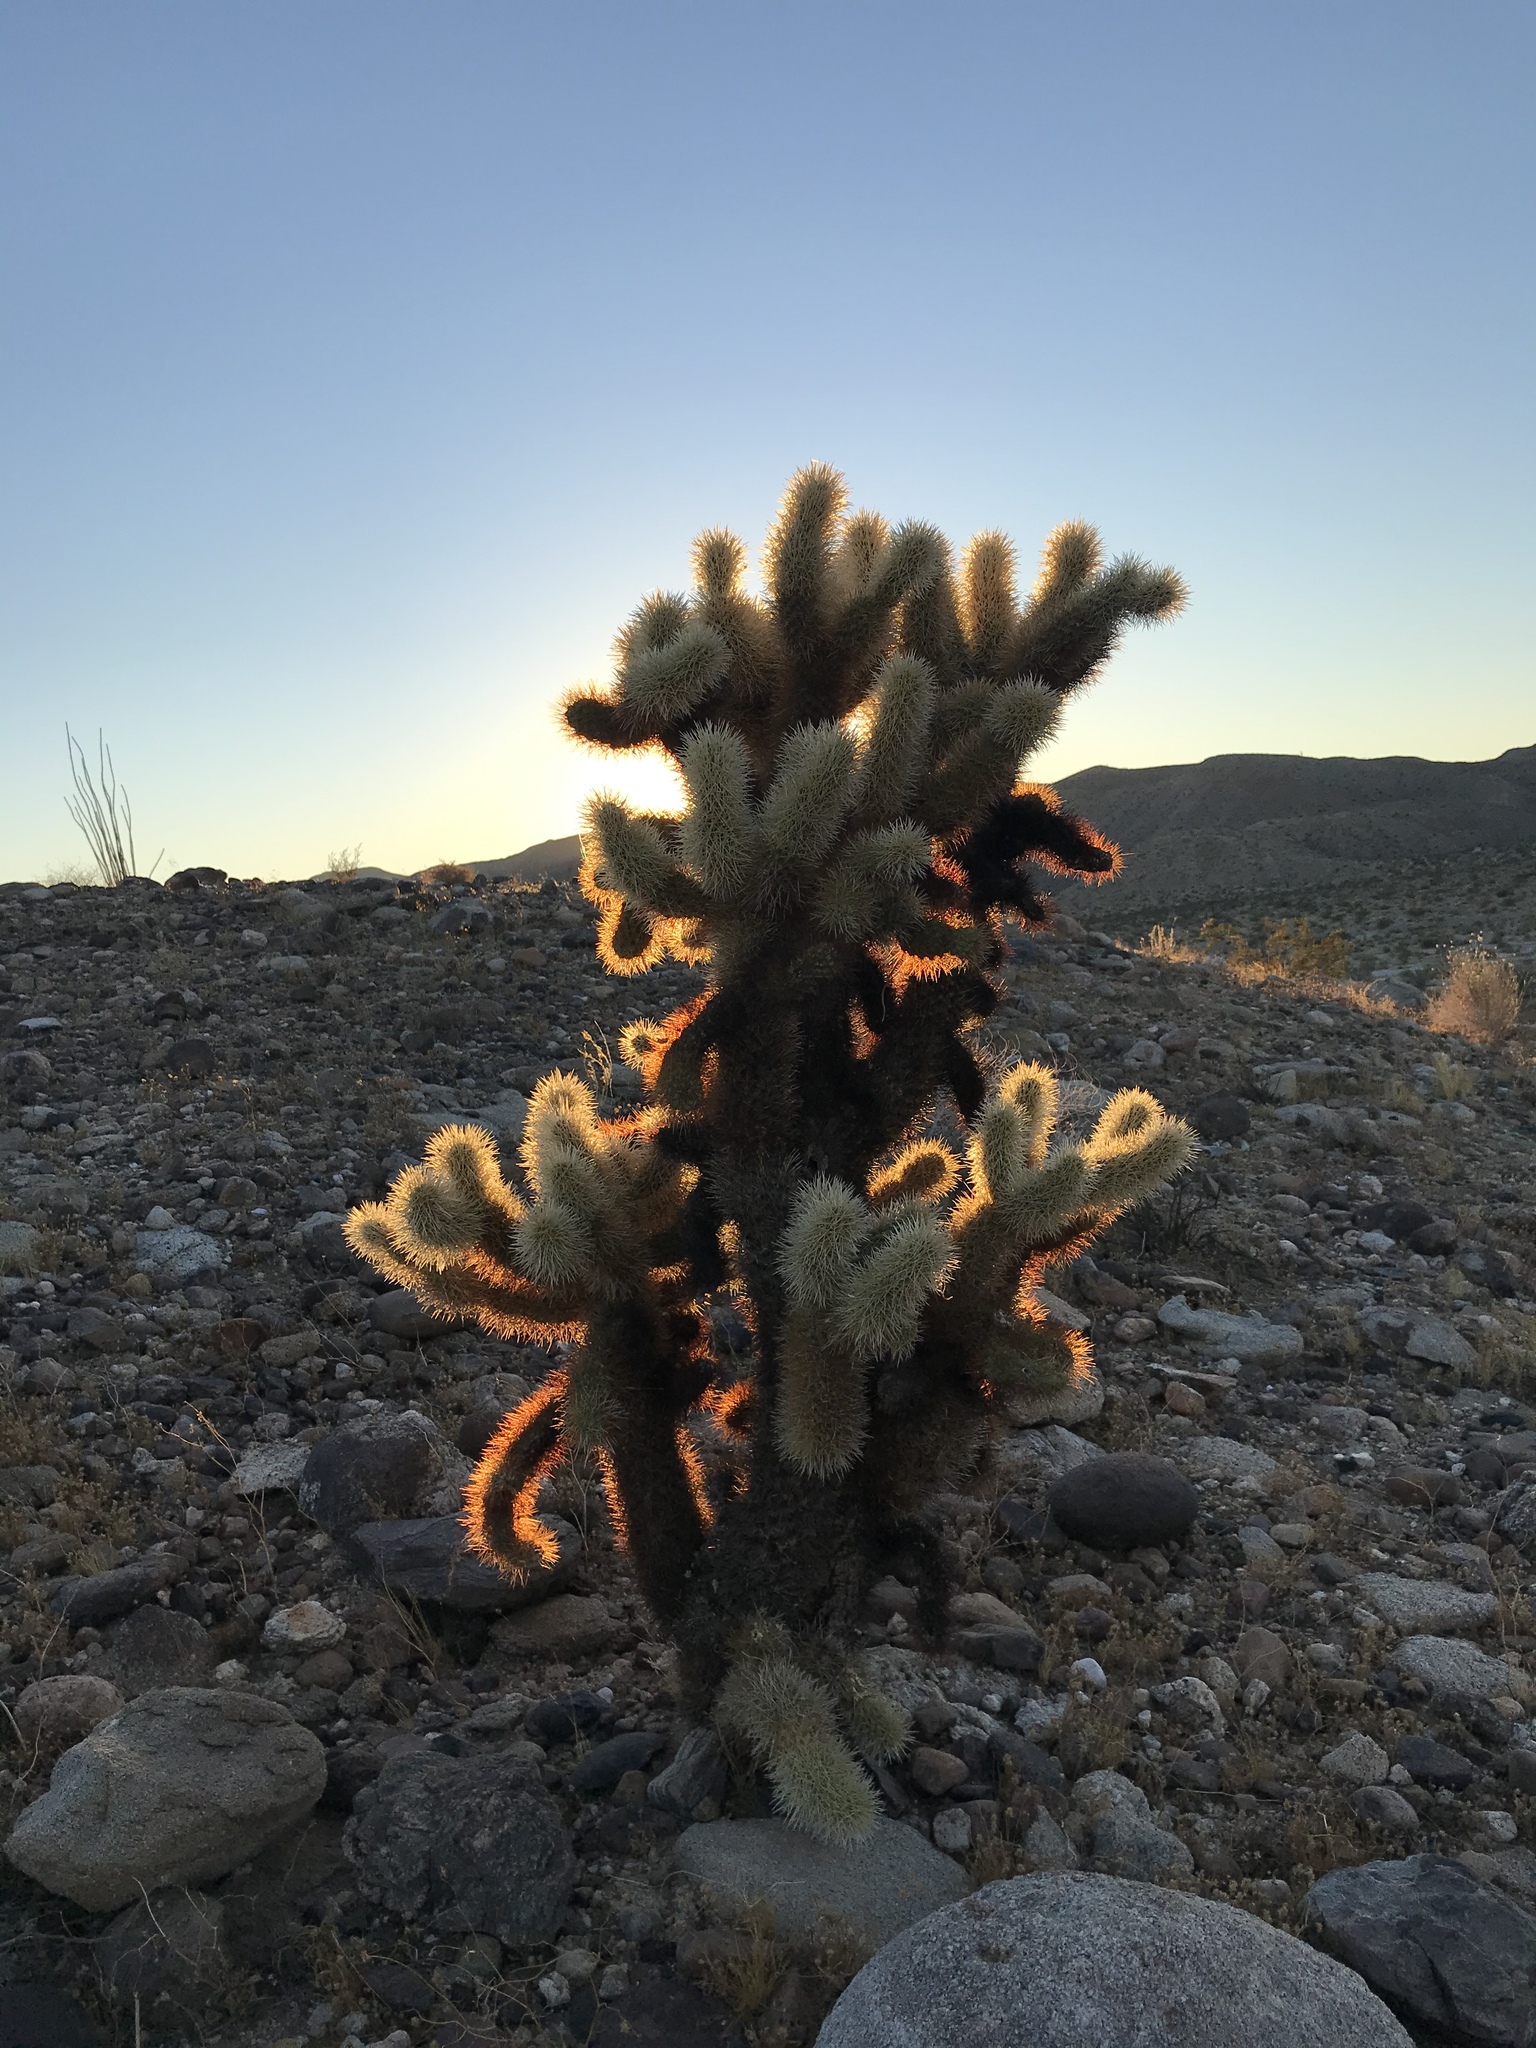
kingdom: Plantae
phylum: Tracheophyta
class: Magnoliopsida
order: Caryophyllales
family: Cactaceae
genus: Cylindropuntia
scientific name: Cylindropuntia fosbergii
